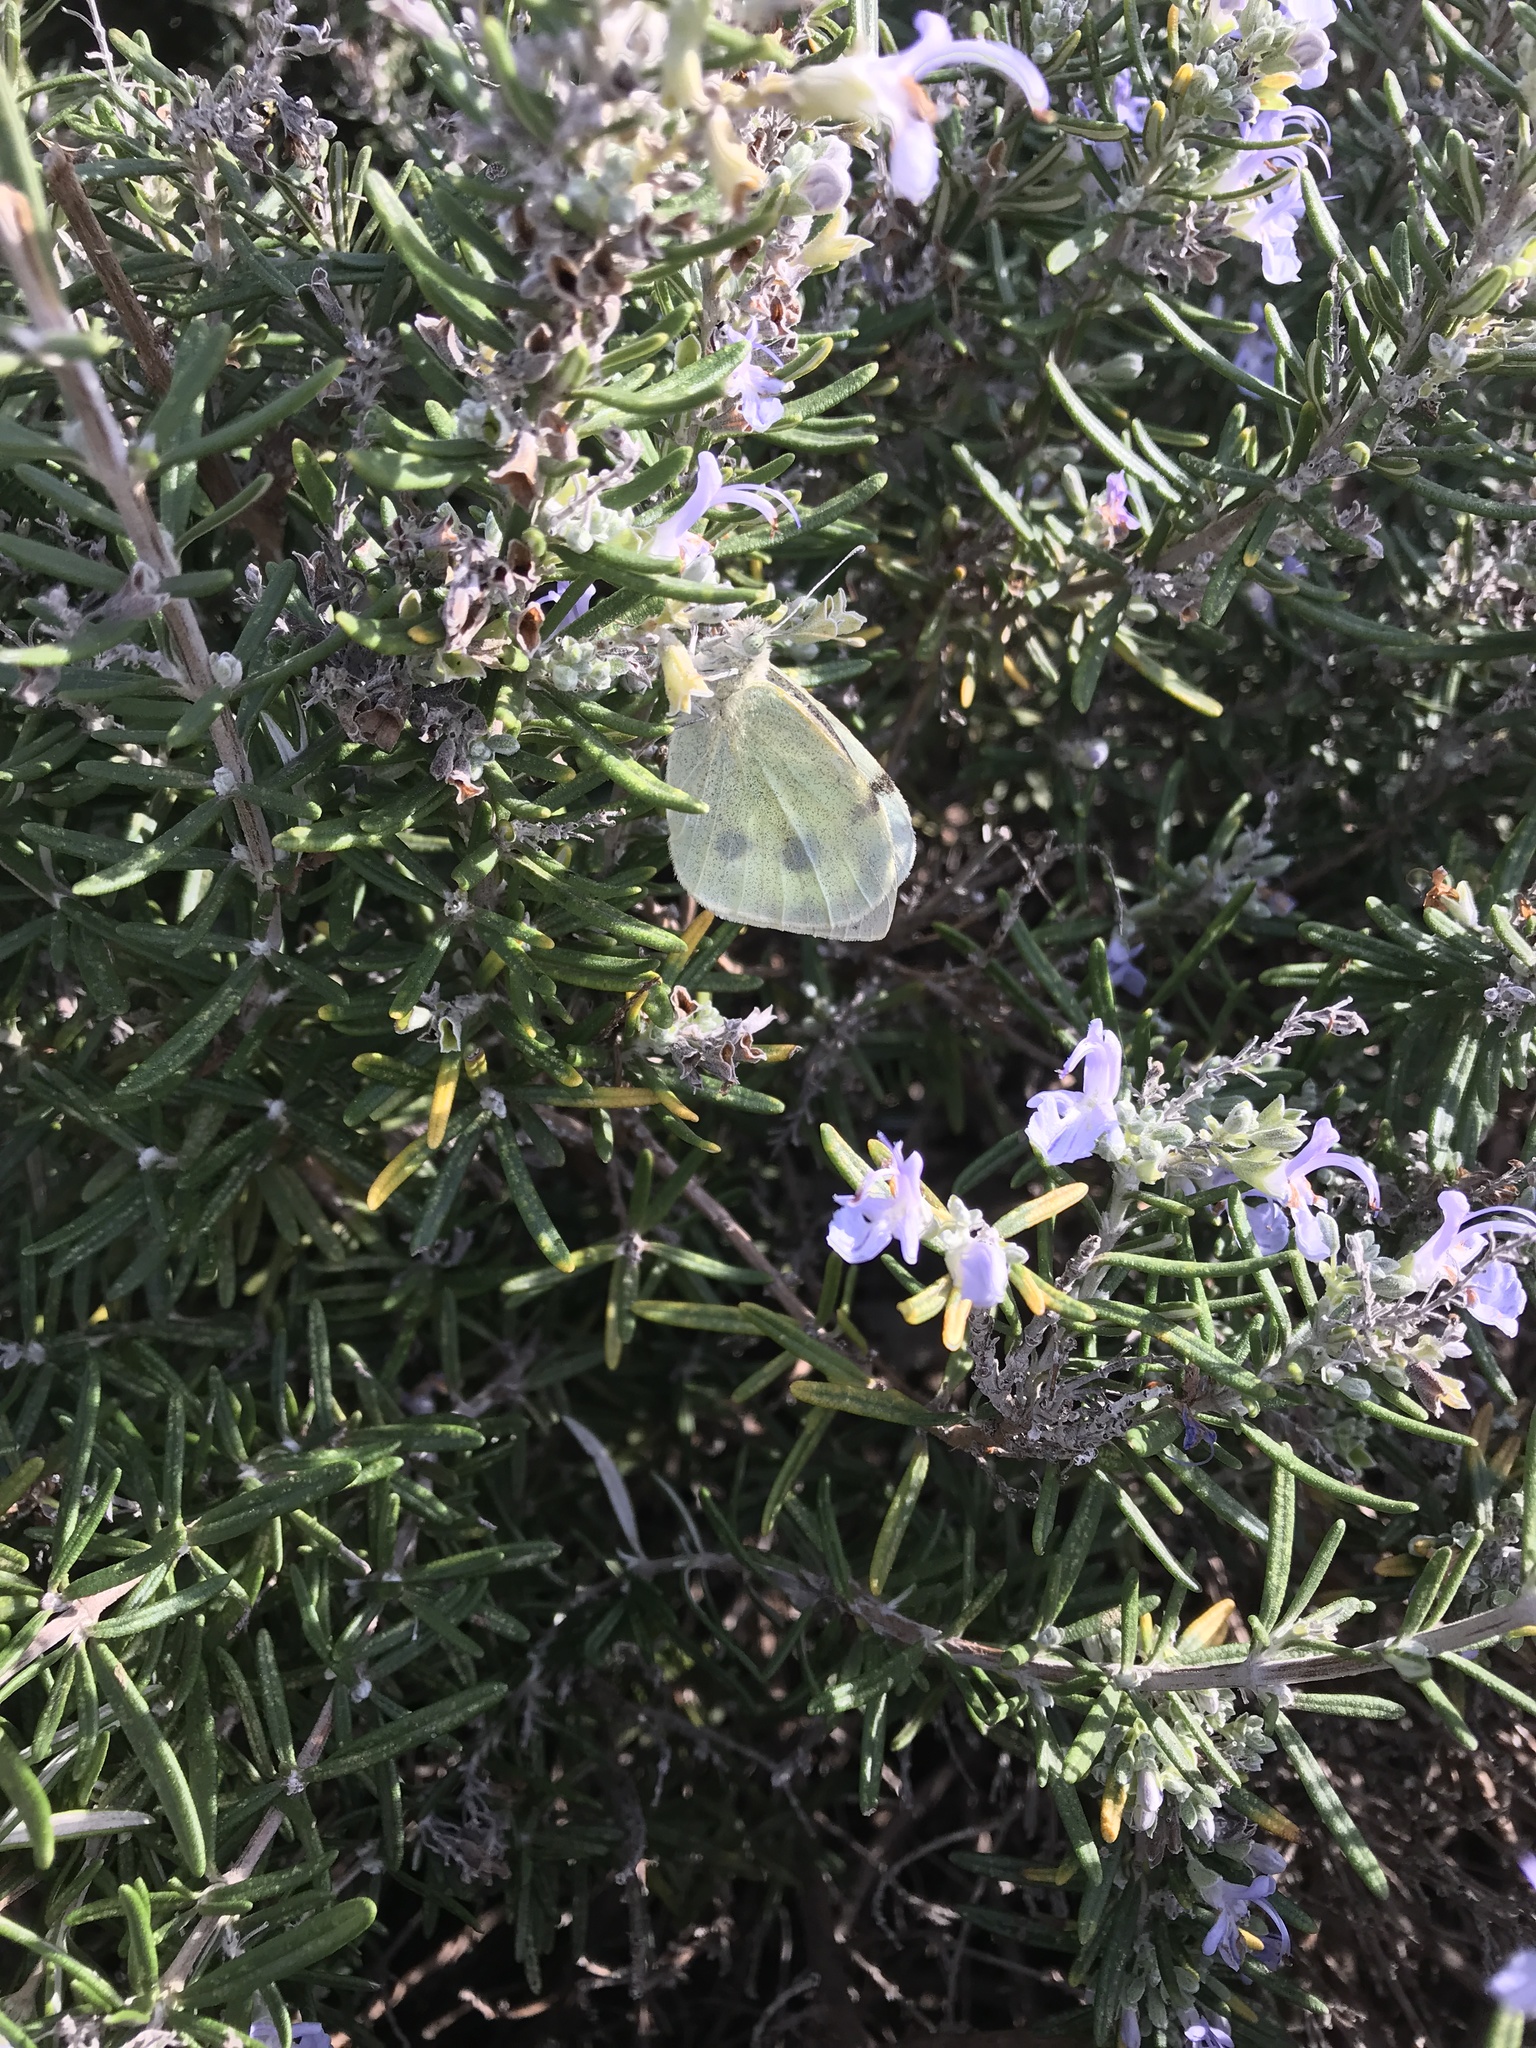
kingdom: Animalia
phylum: Arthropoda
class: Insecta
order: Lepidoptera
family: Pieridae
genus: Pieris
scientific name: Pieris brassicae
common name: Large white
